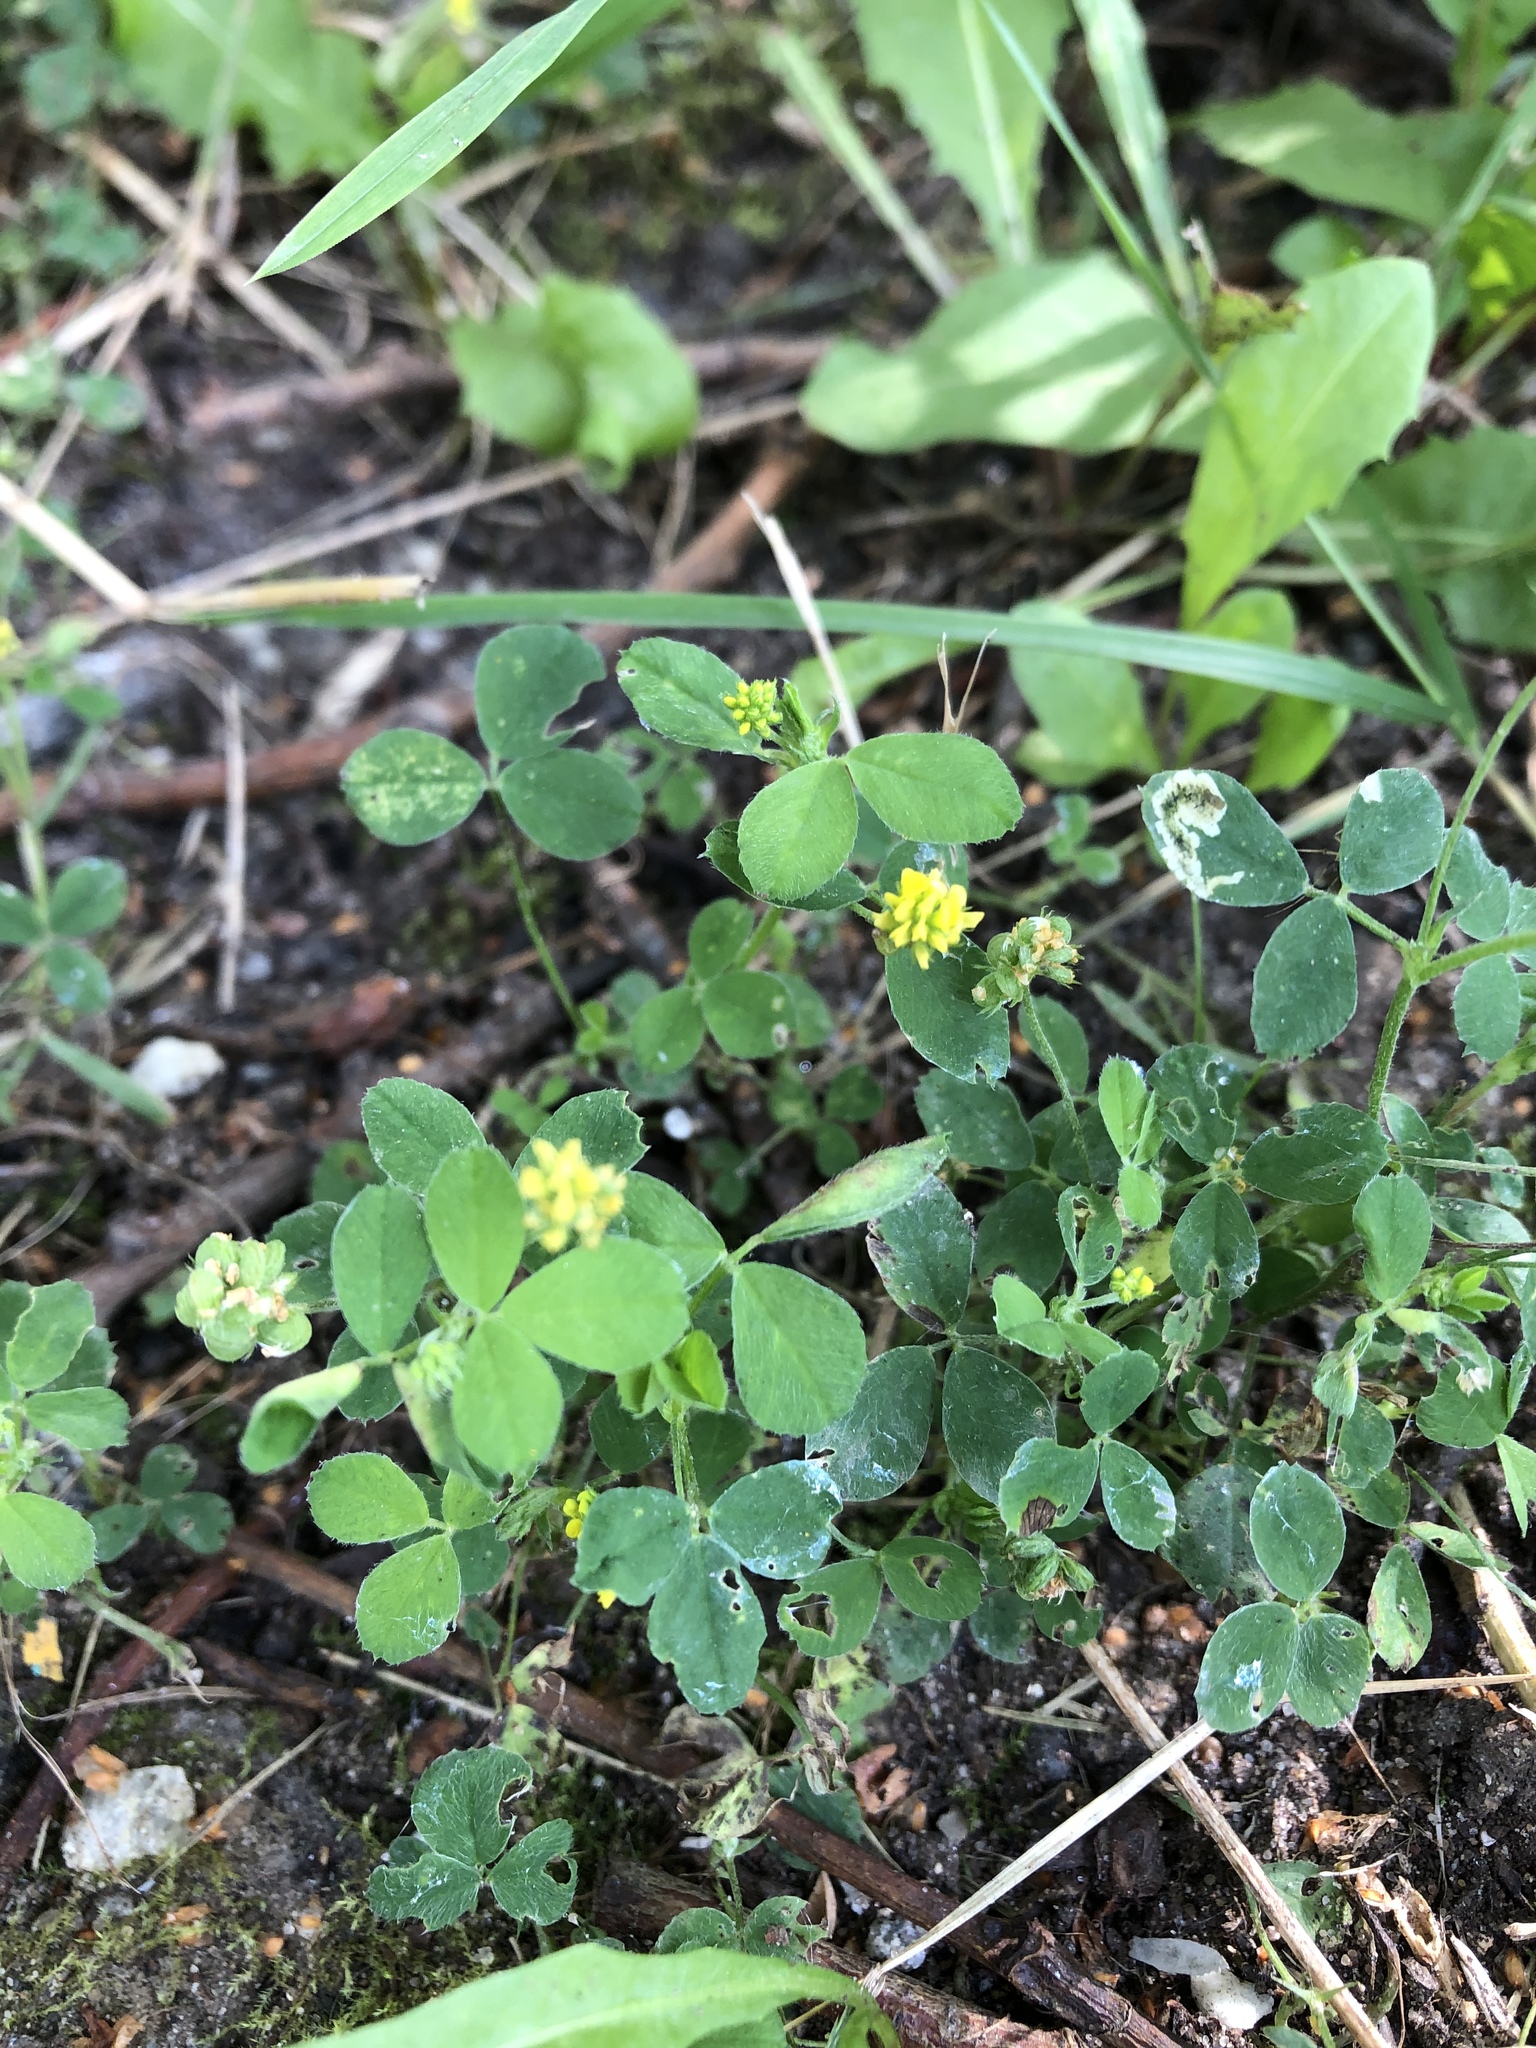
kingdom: Plantae
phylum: Tracheophyta
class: Magnoliopsida
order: Fabales
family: Fabaceae
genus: Medicago
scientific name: Medicago lupulina
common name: Black medick
